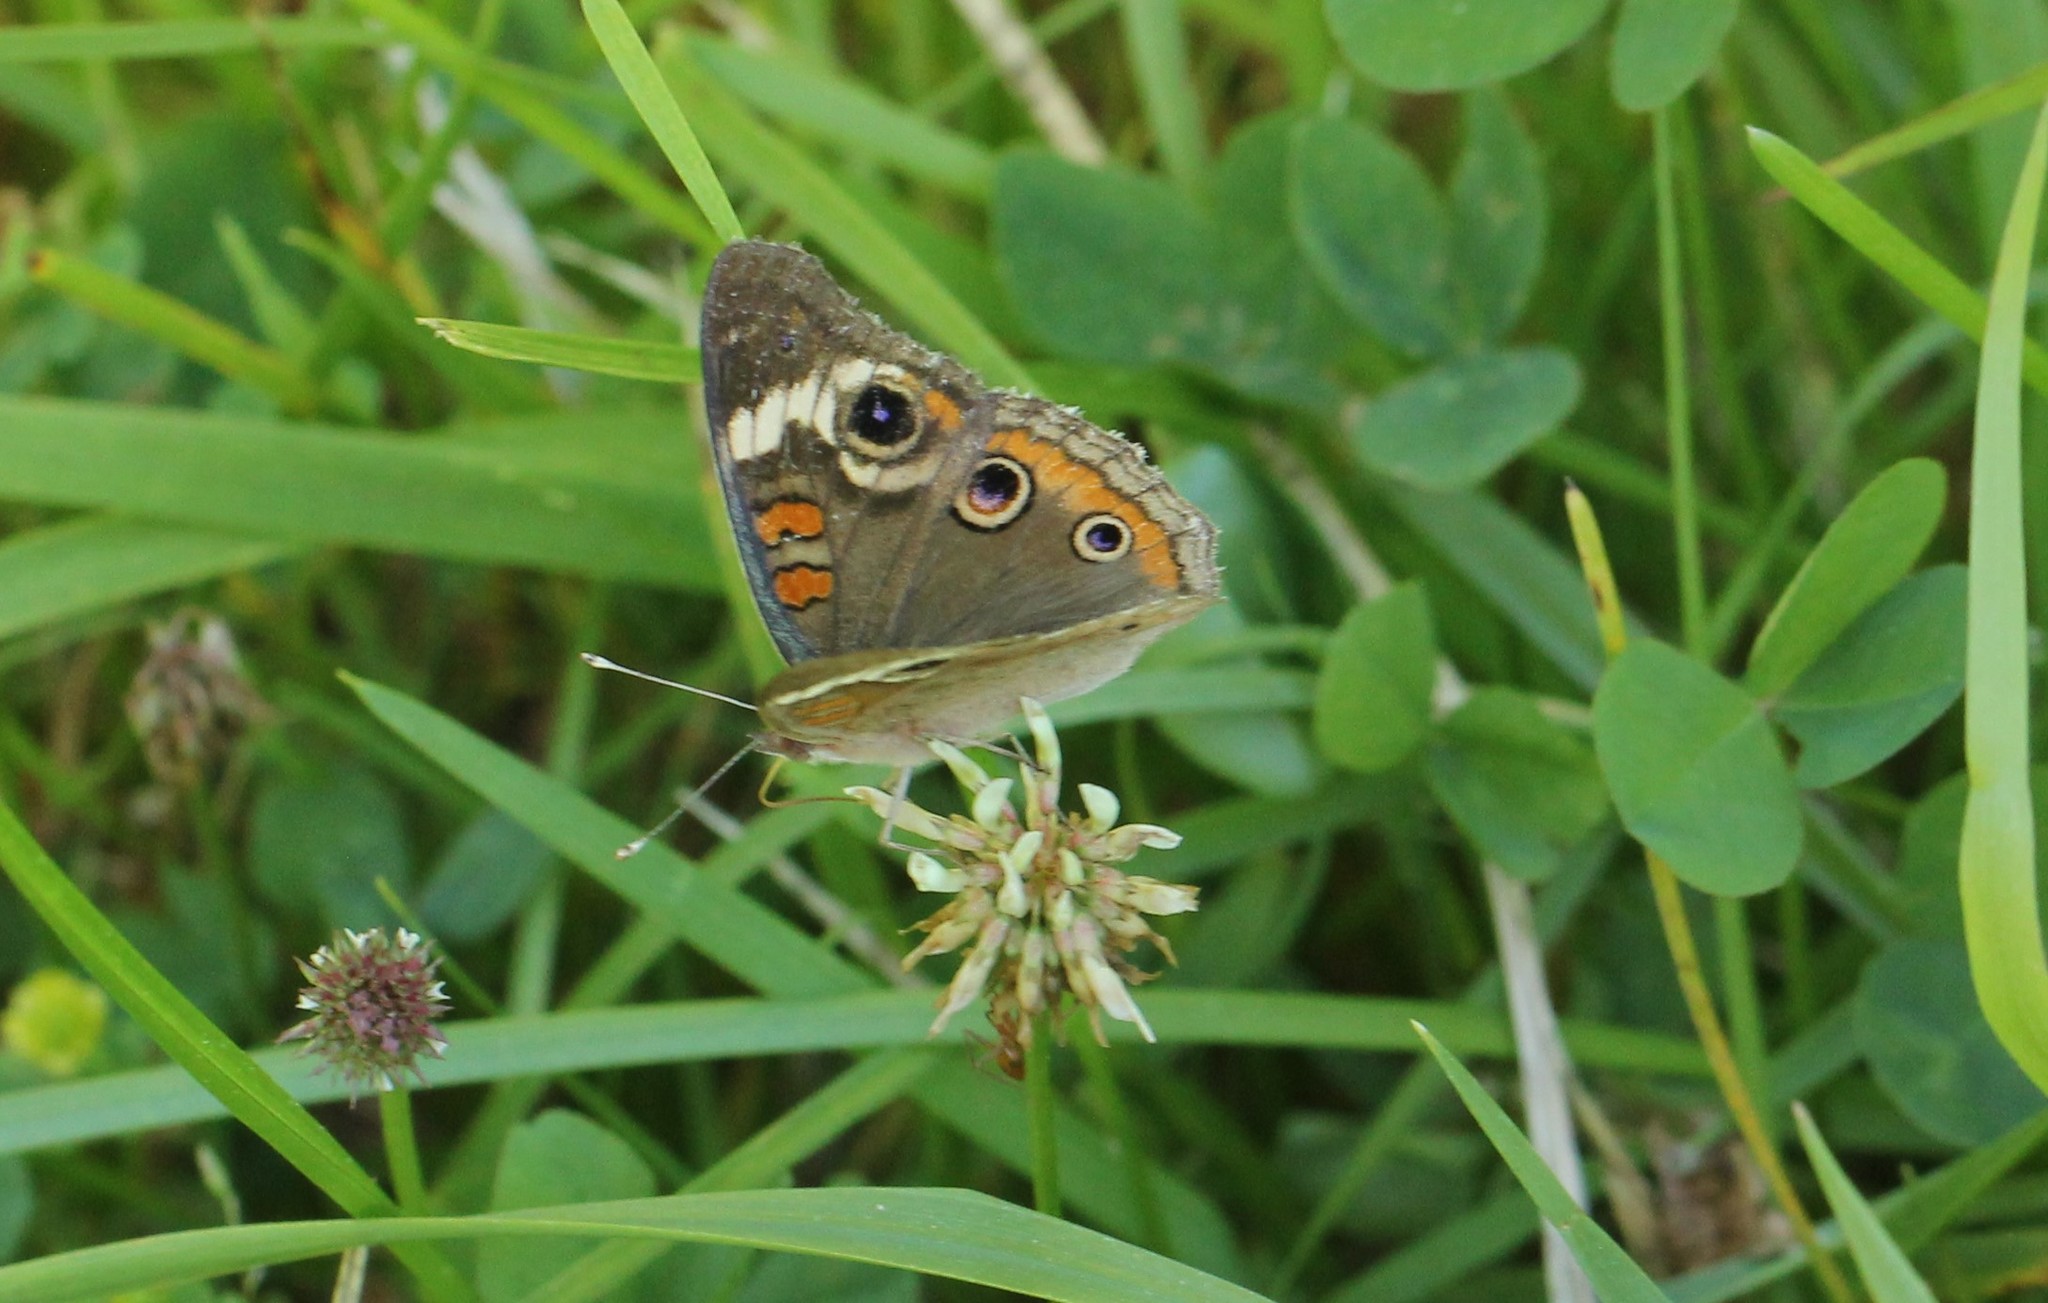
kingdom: Animalia
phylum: Arthropoda
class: Insecta
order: Lepidoptera
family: Nymphalidae
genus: Junonia
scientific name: Junonia coenia
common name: Common buckeye
